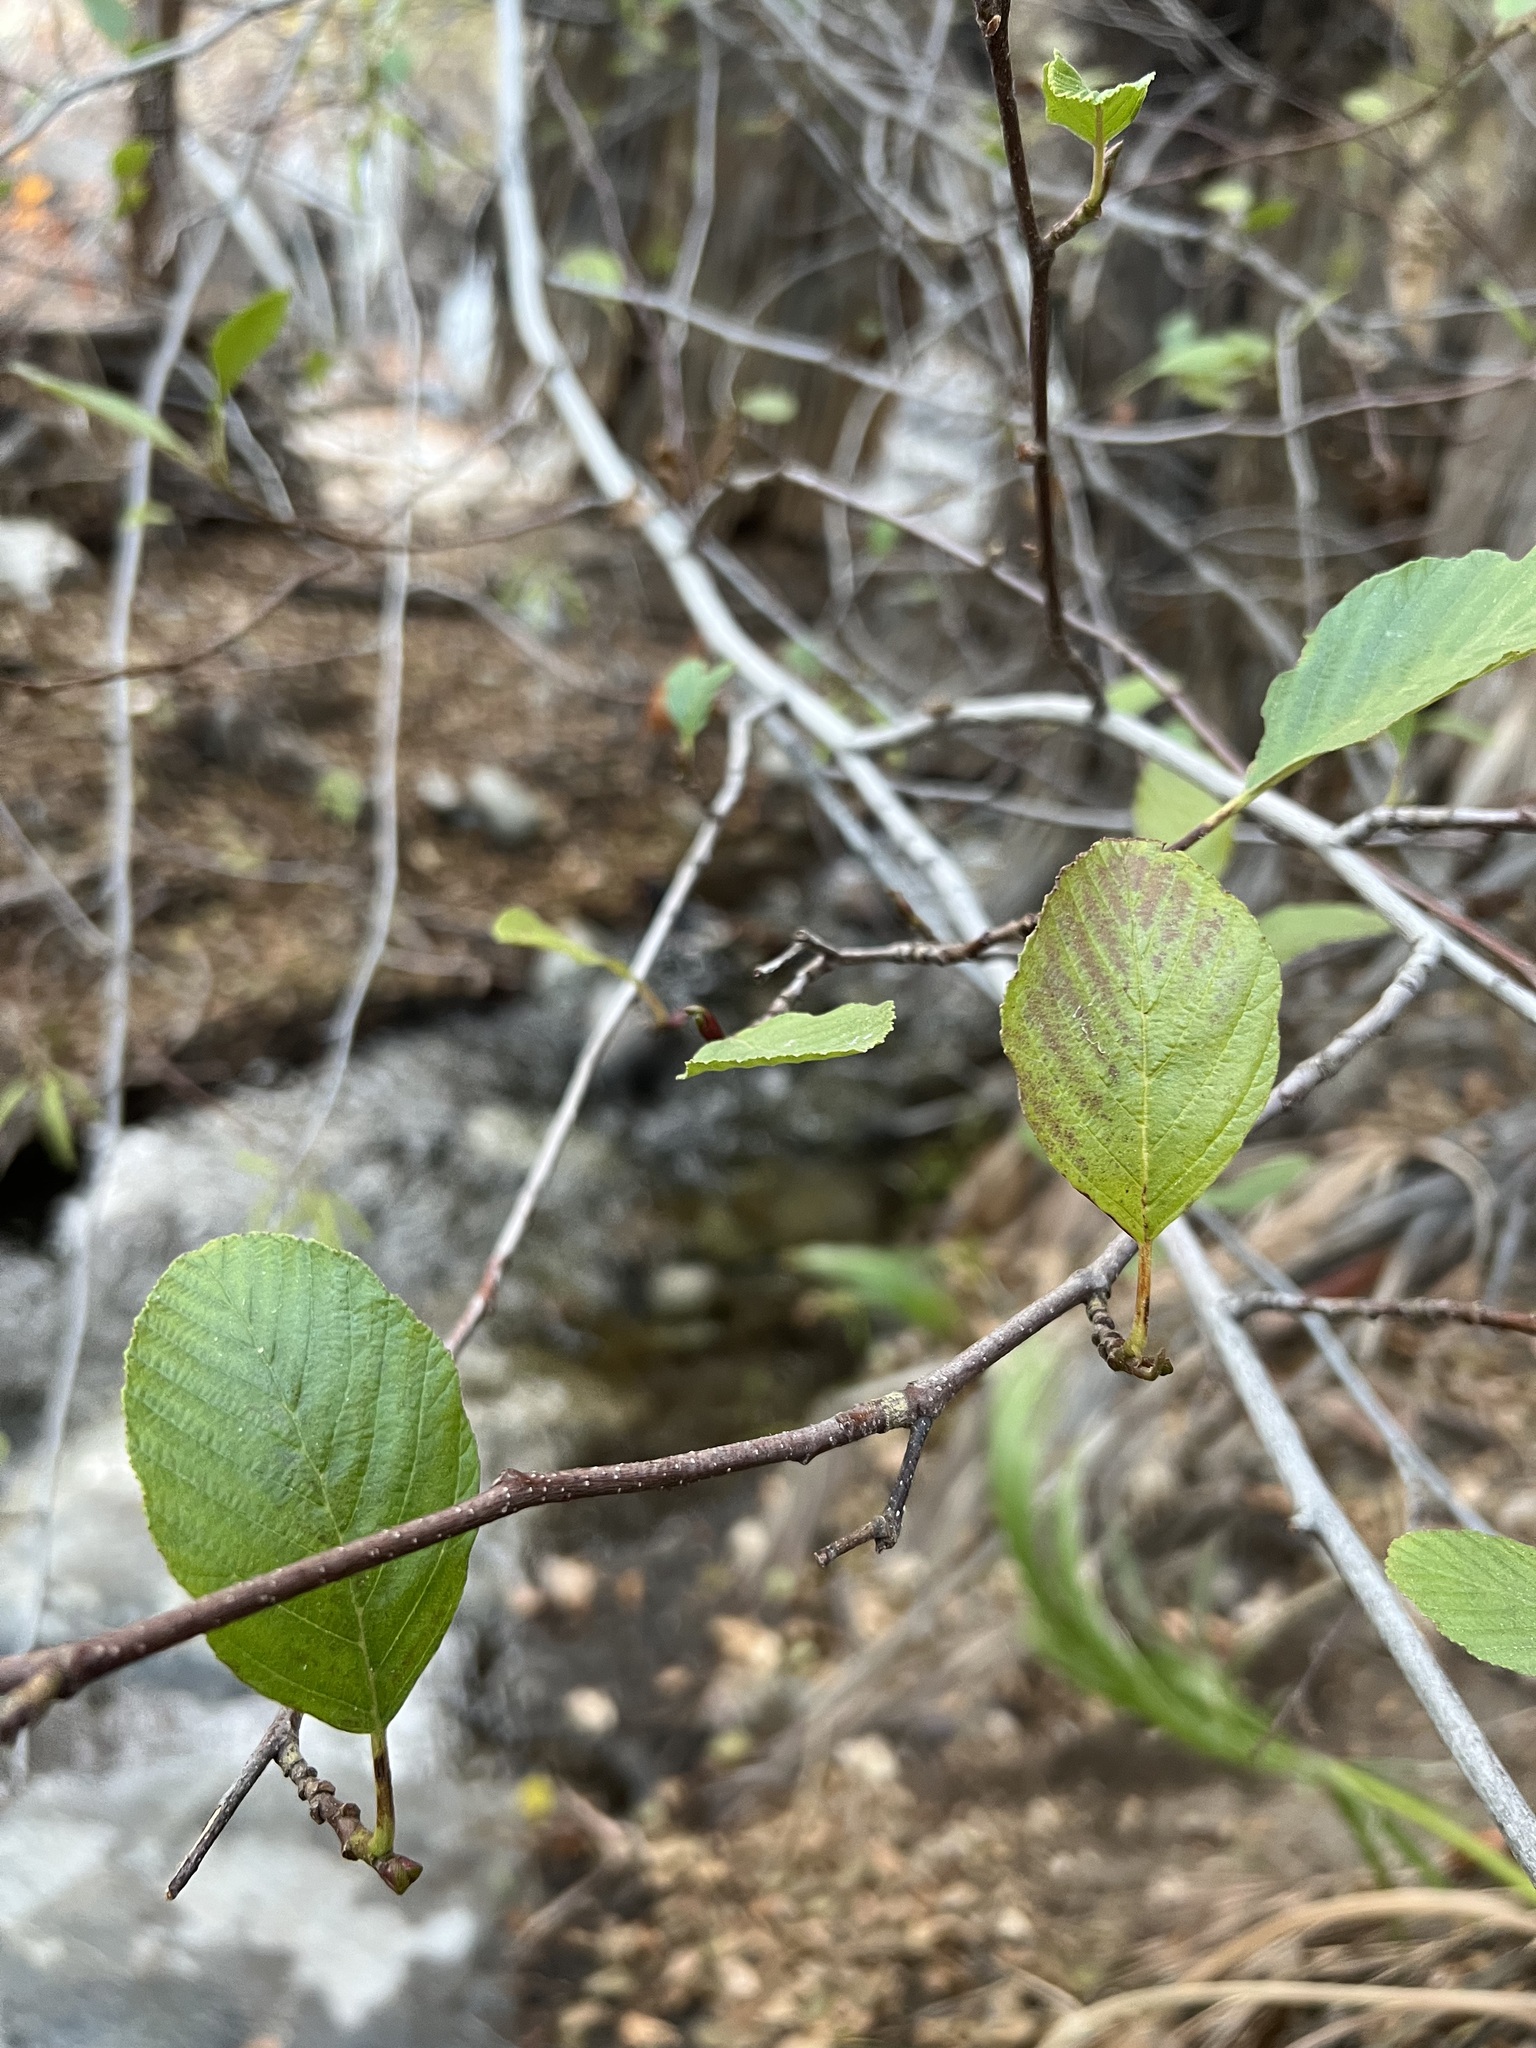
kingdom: Plantae
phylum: Tracheophyta
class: Magnoliopsida
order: Fagales
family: Betulaceae
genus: Alnus
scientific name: Alnus rhombifolia
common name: California alder
